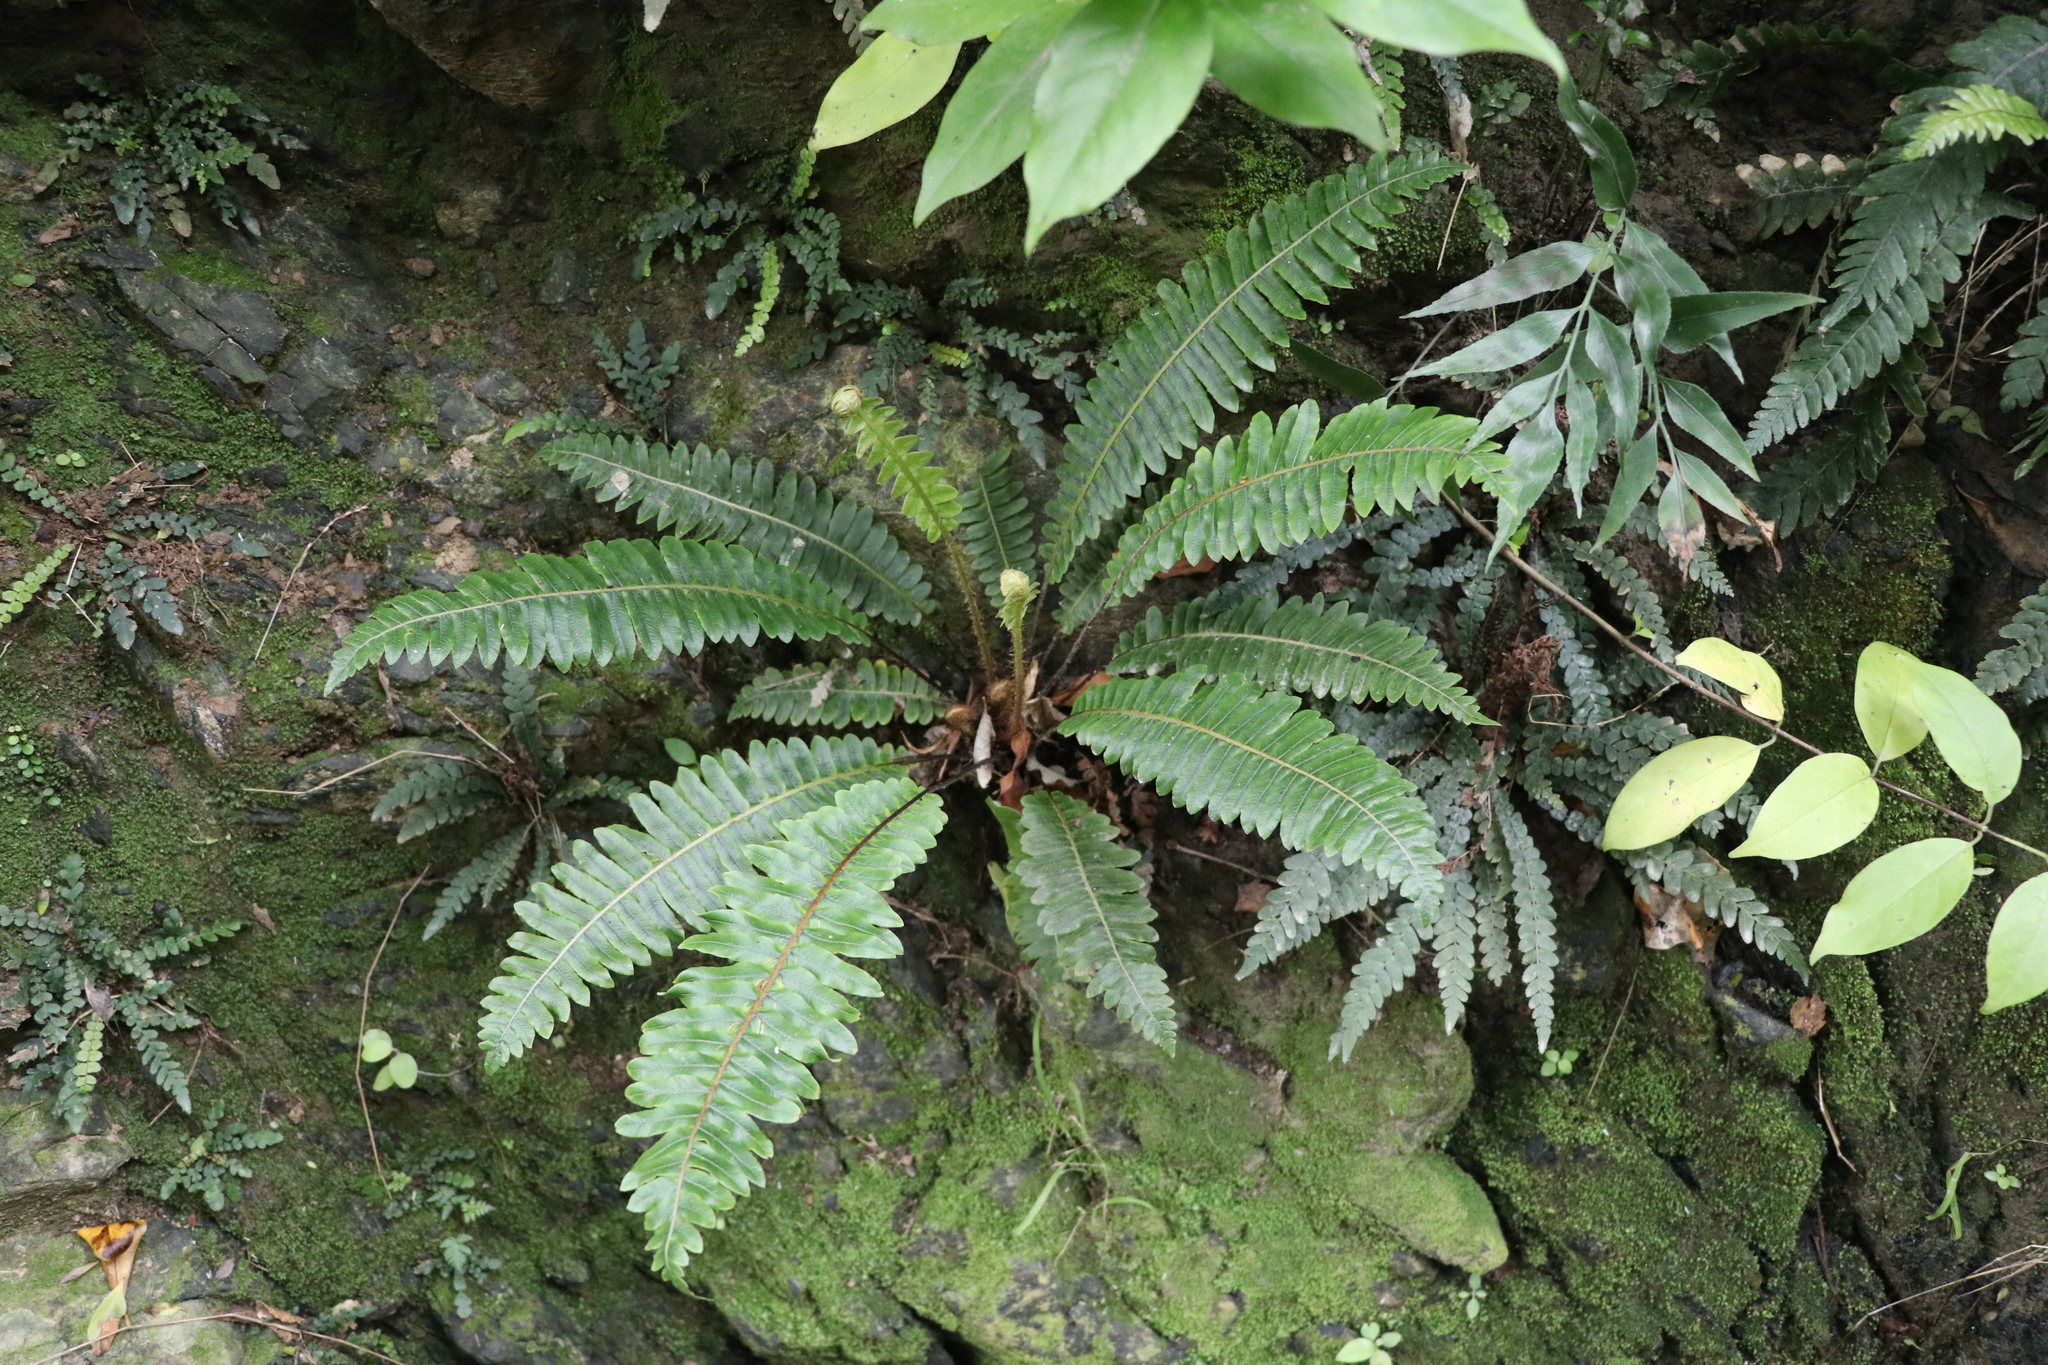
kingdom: Plantae
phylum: Tracheophyta
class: Polypodiopsida
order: Polypodiales
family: Blechnaceae
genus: Lomaria
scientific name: Lomaria discolor
